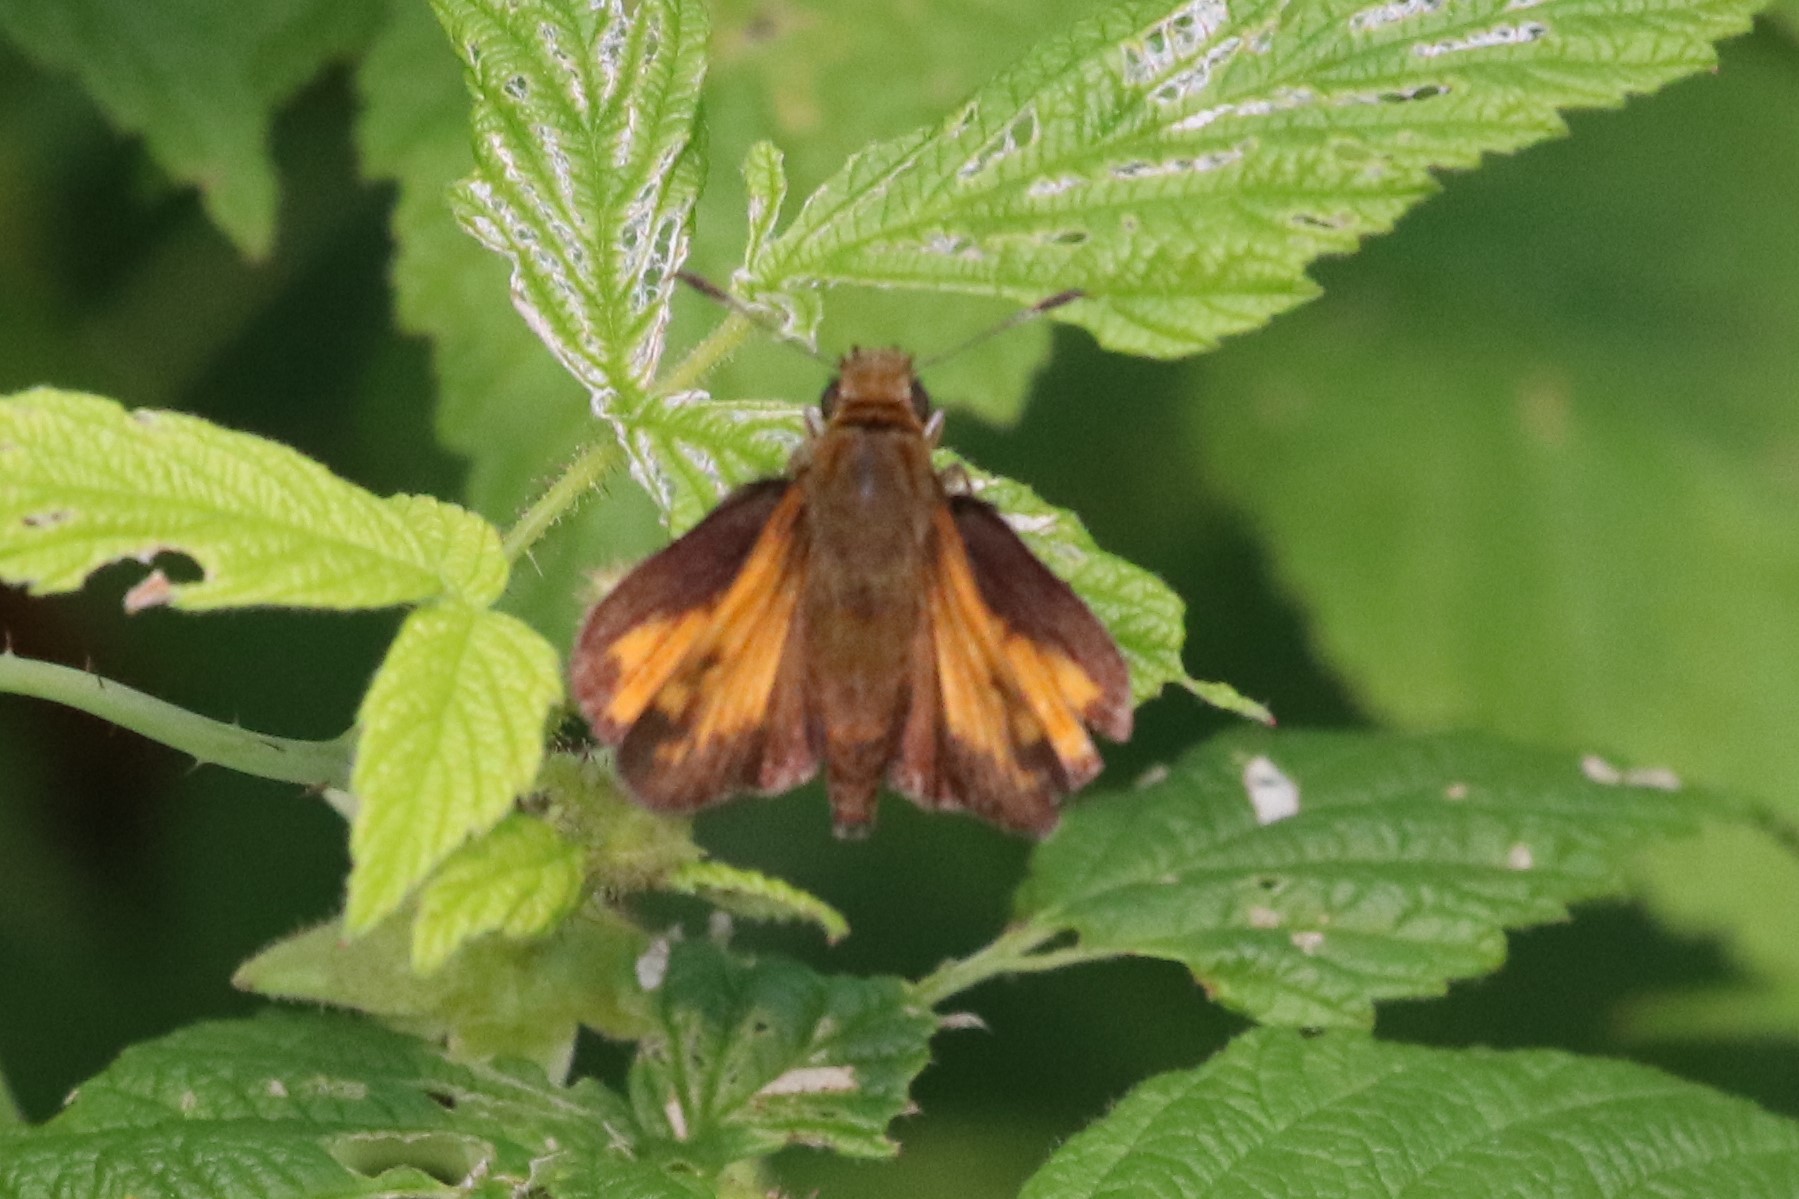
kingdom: Animalia
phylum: Arthropoda
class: Insecta
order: Lepidoptera
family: Hesperiidae
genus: Lon
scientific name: Lon hobomok
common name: Hobomok skipper
